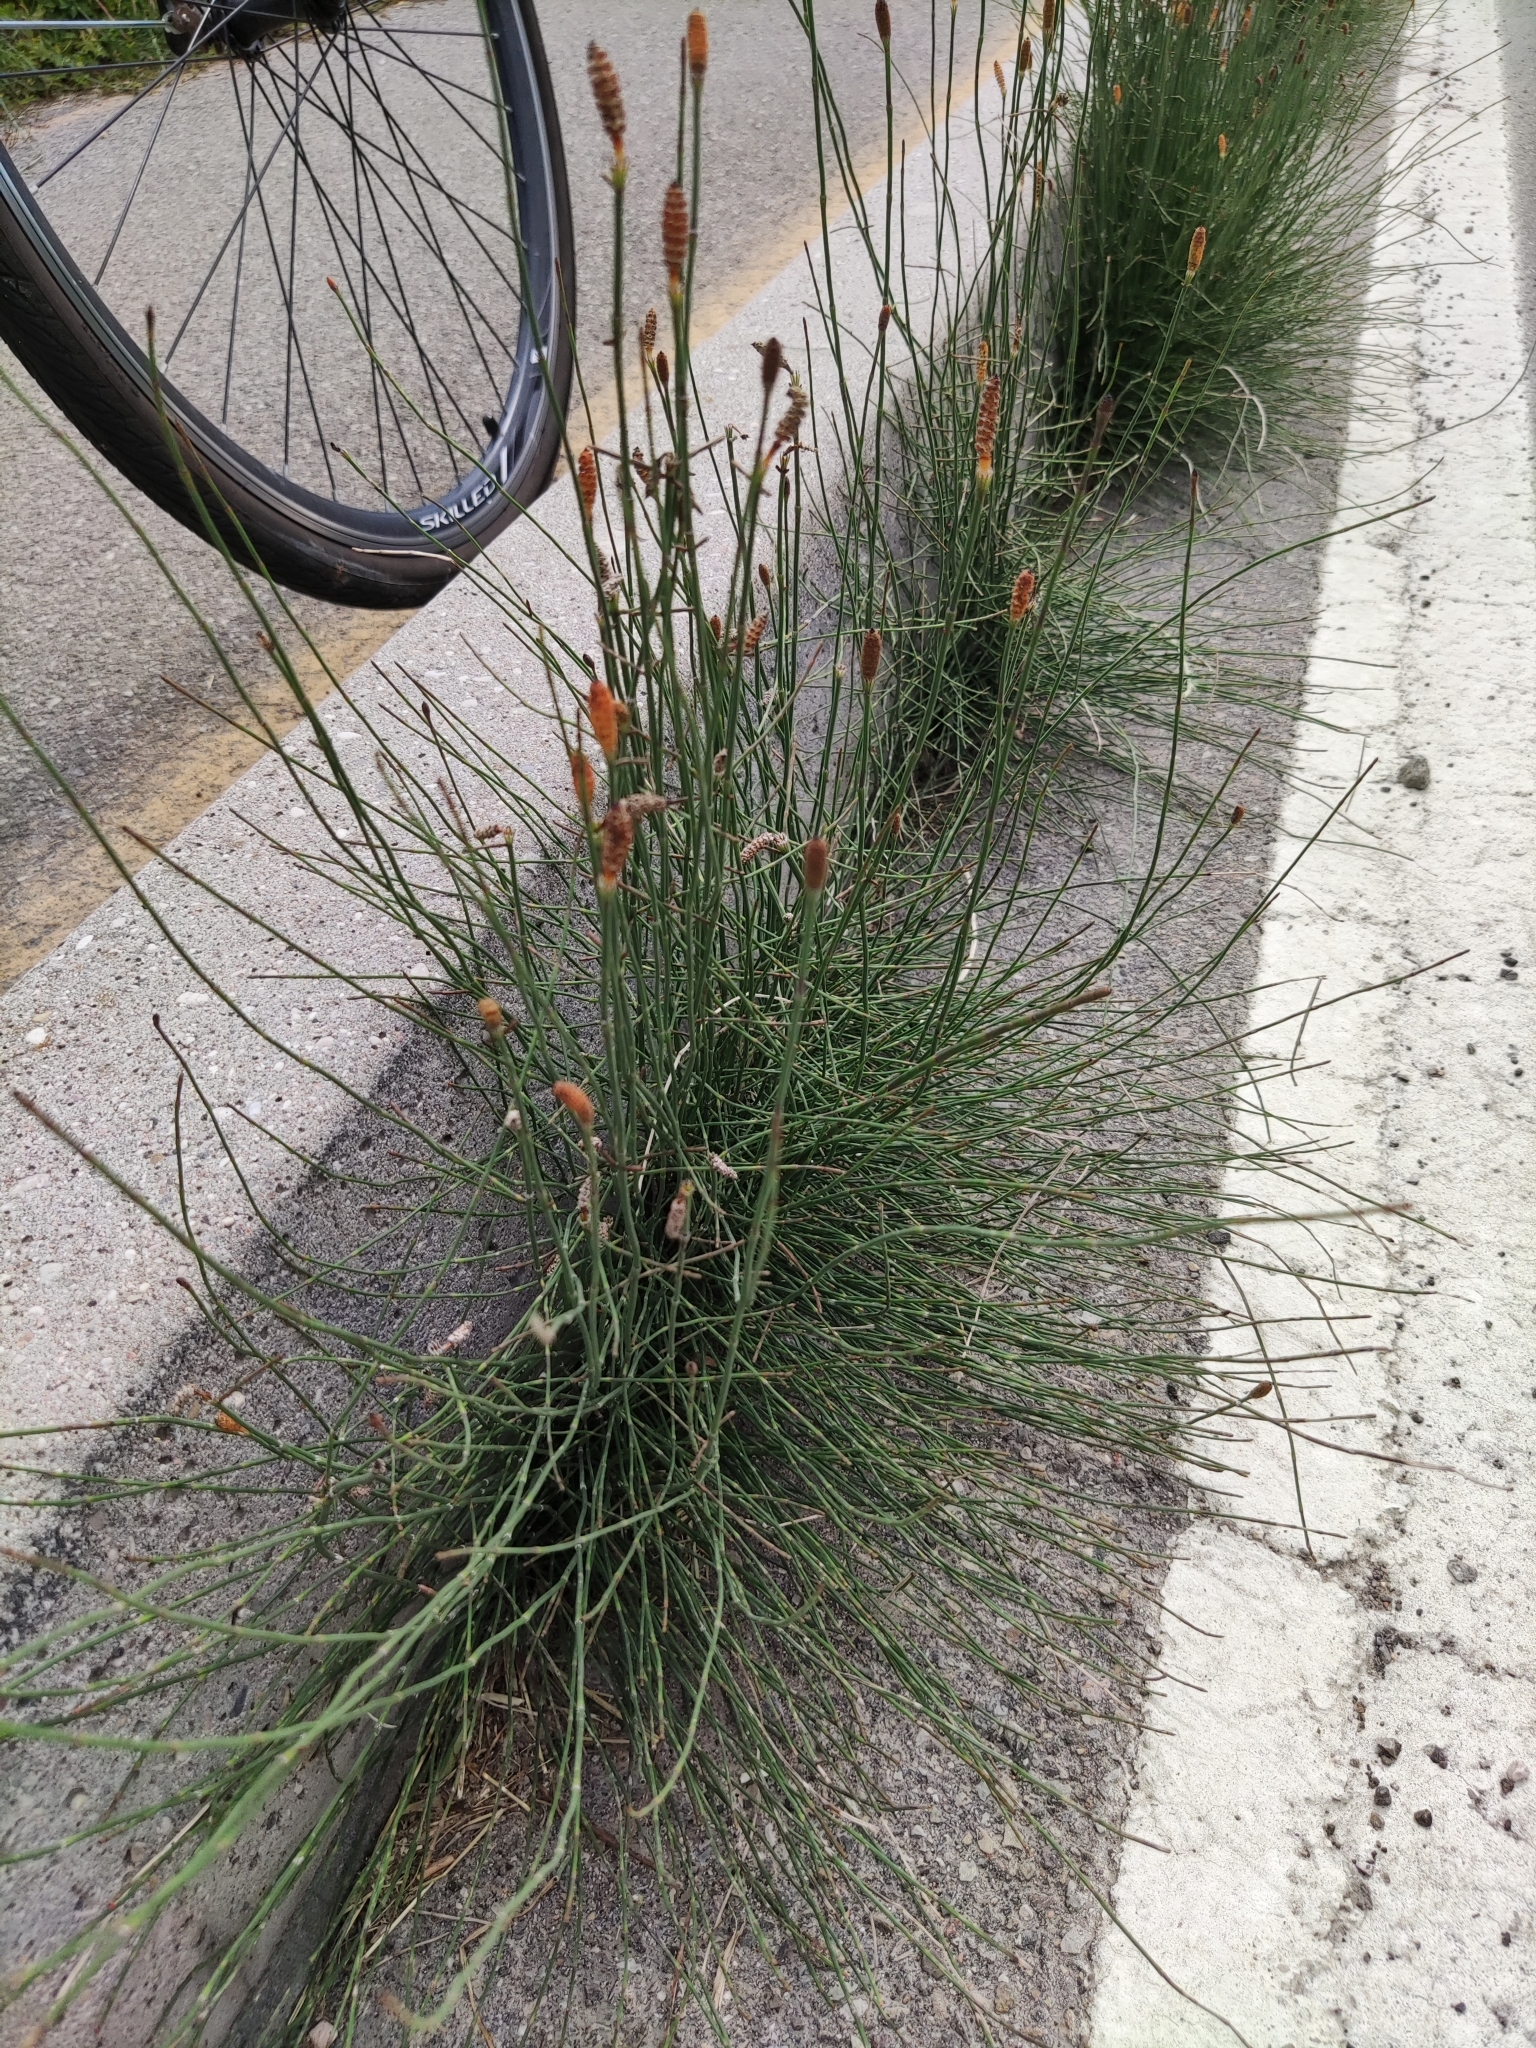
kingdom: Plantae
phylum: Tracheophyta
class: Polypodiopsida
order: Equisetales
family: Equisetaceae
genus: Equisetum
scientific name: Equisetum ramosissimum
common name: Branched horsetail
